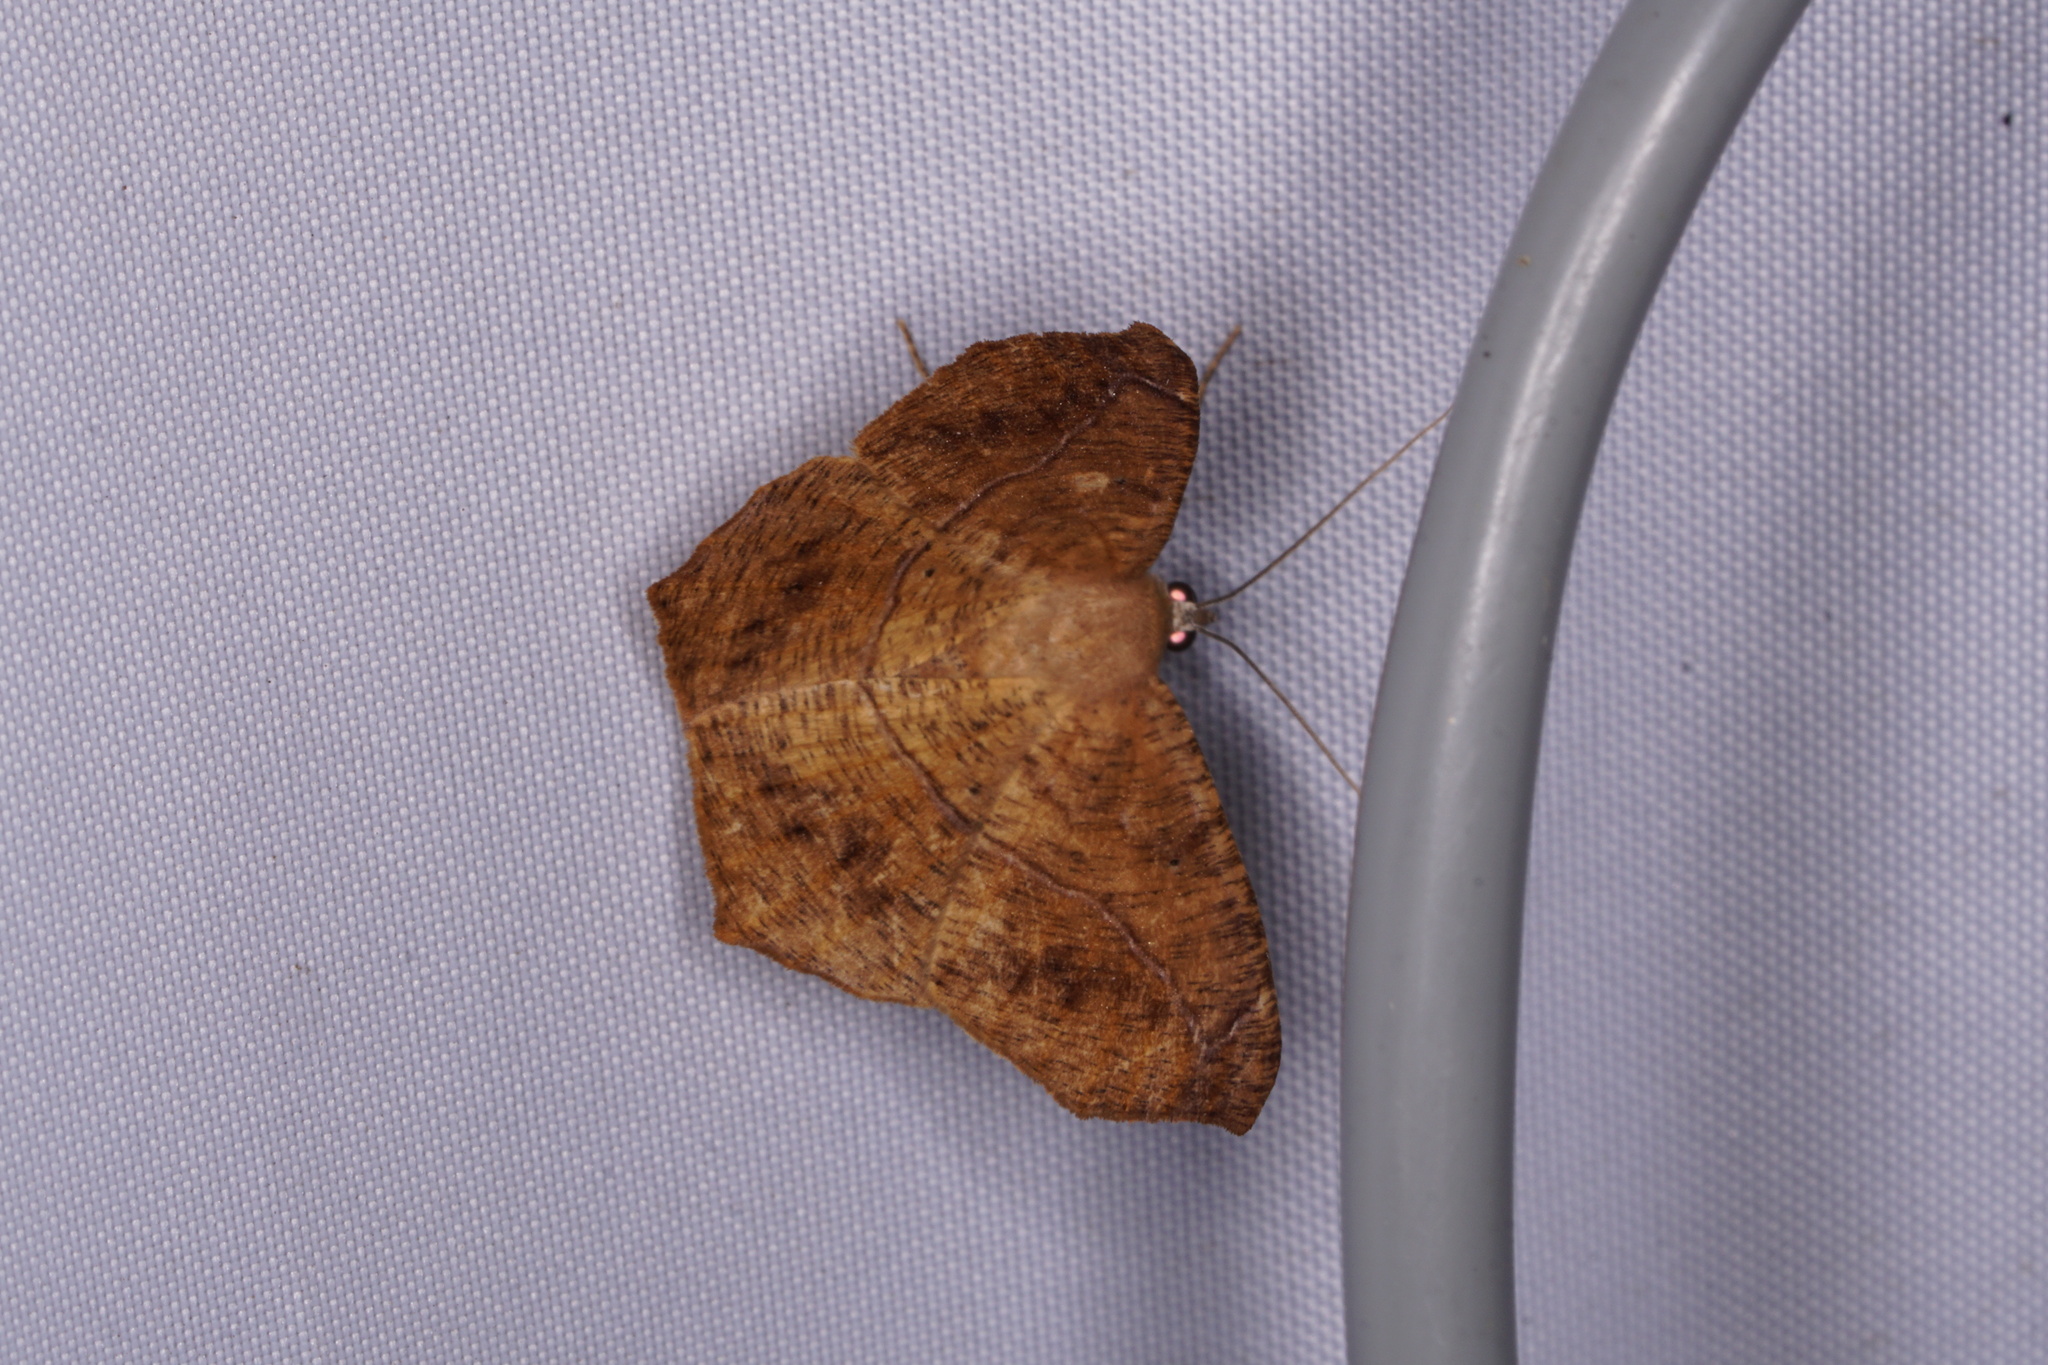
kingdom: Animalia
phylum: Arthropoda
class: Insecta
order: Lepidoptera
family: Geometridae
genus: Prochoerodes
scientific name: Prochoerodes lineola
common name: Large maple spanworm
